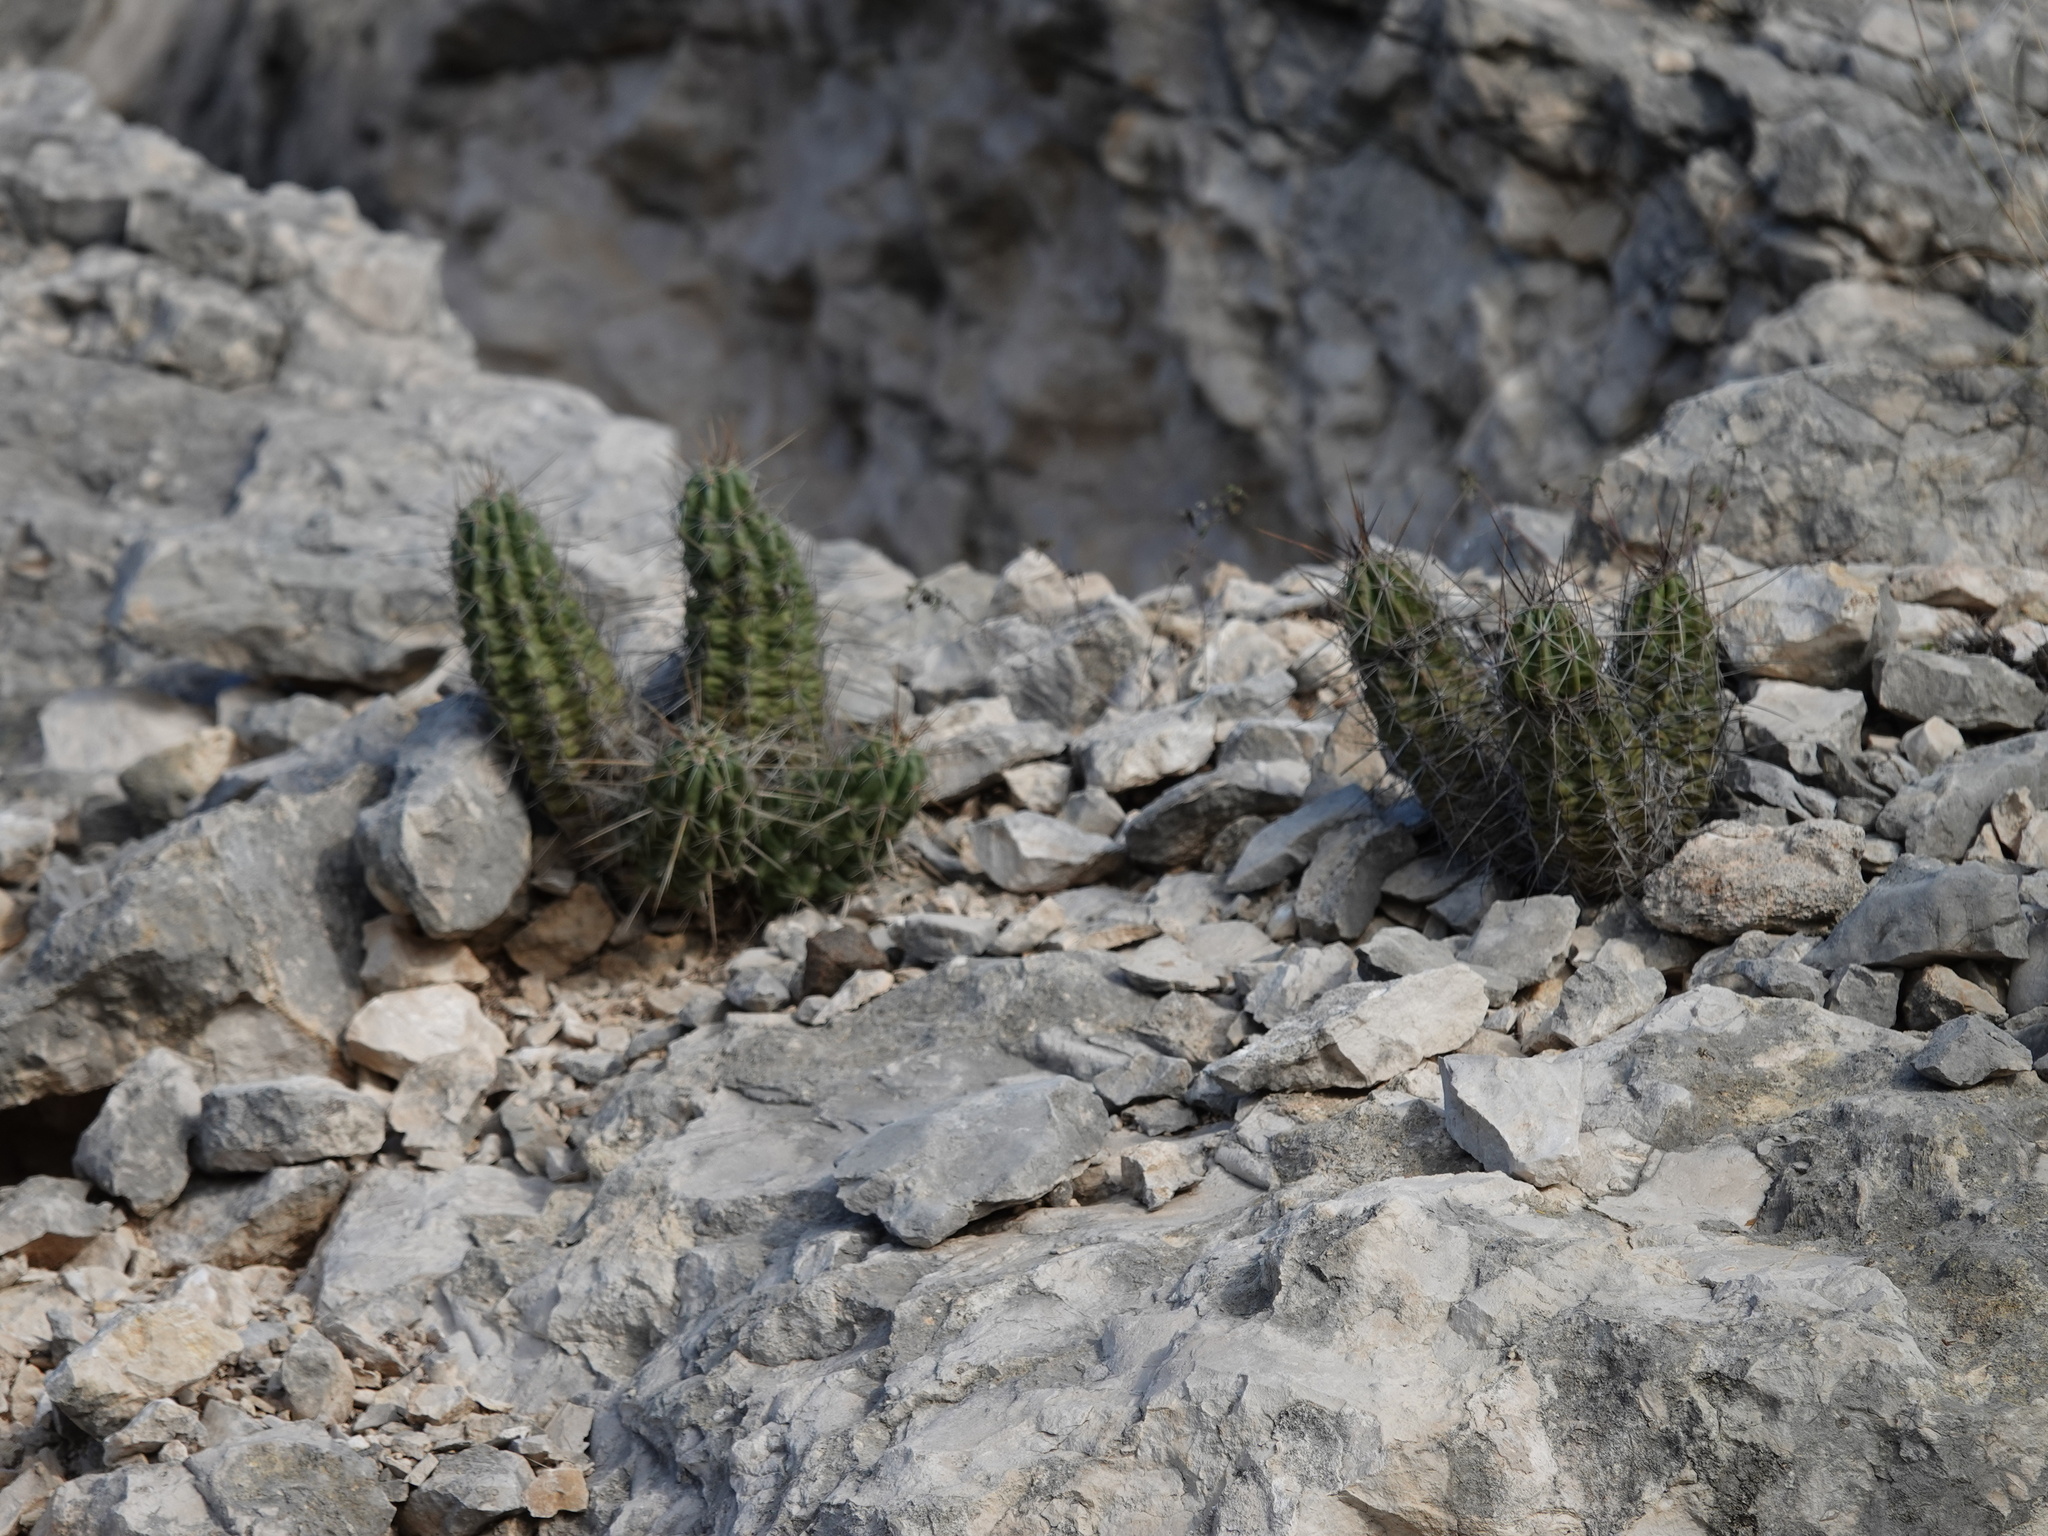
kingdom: Plantae
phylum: Tracheophyta
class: Magnoliopsida
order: Caryophyllales
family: Cactaceae
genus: Echinocereus
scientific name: Echinocereus enneacanthus
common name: Pitaya
